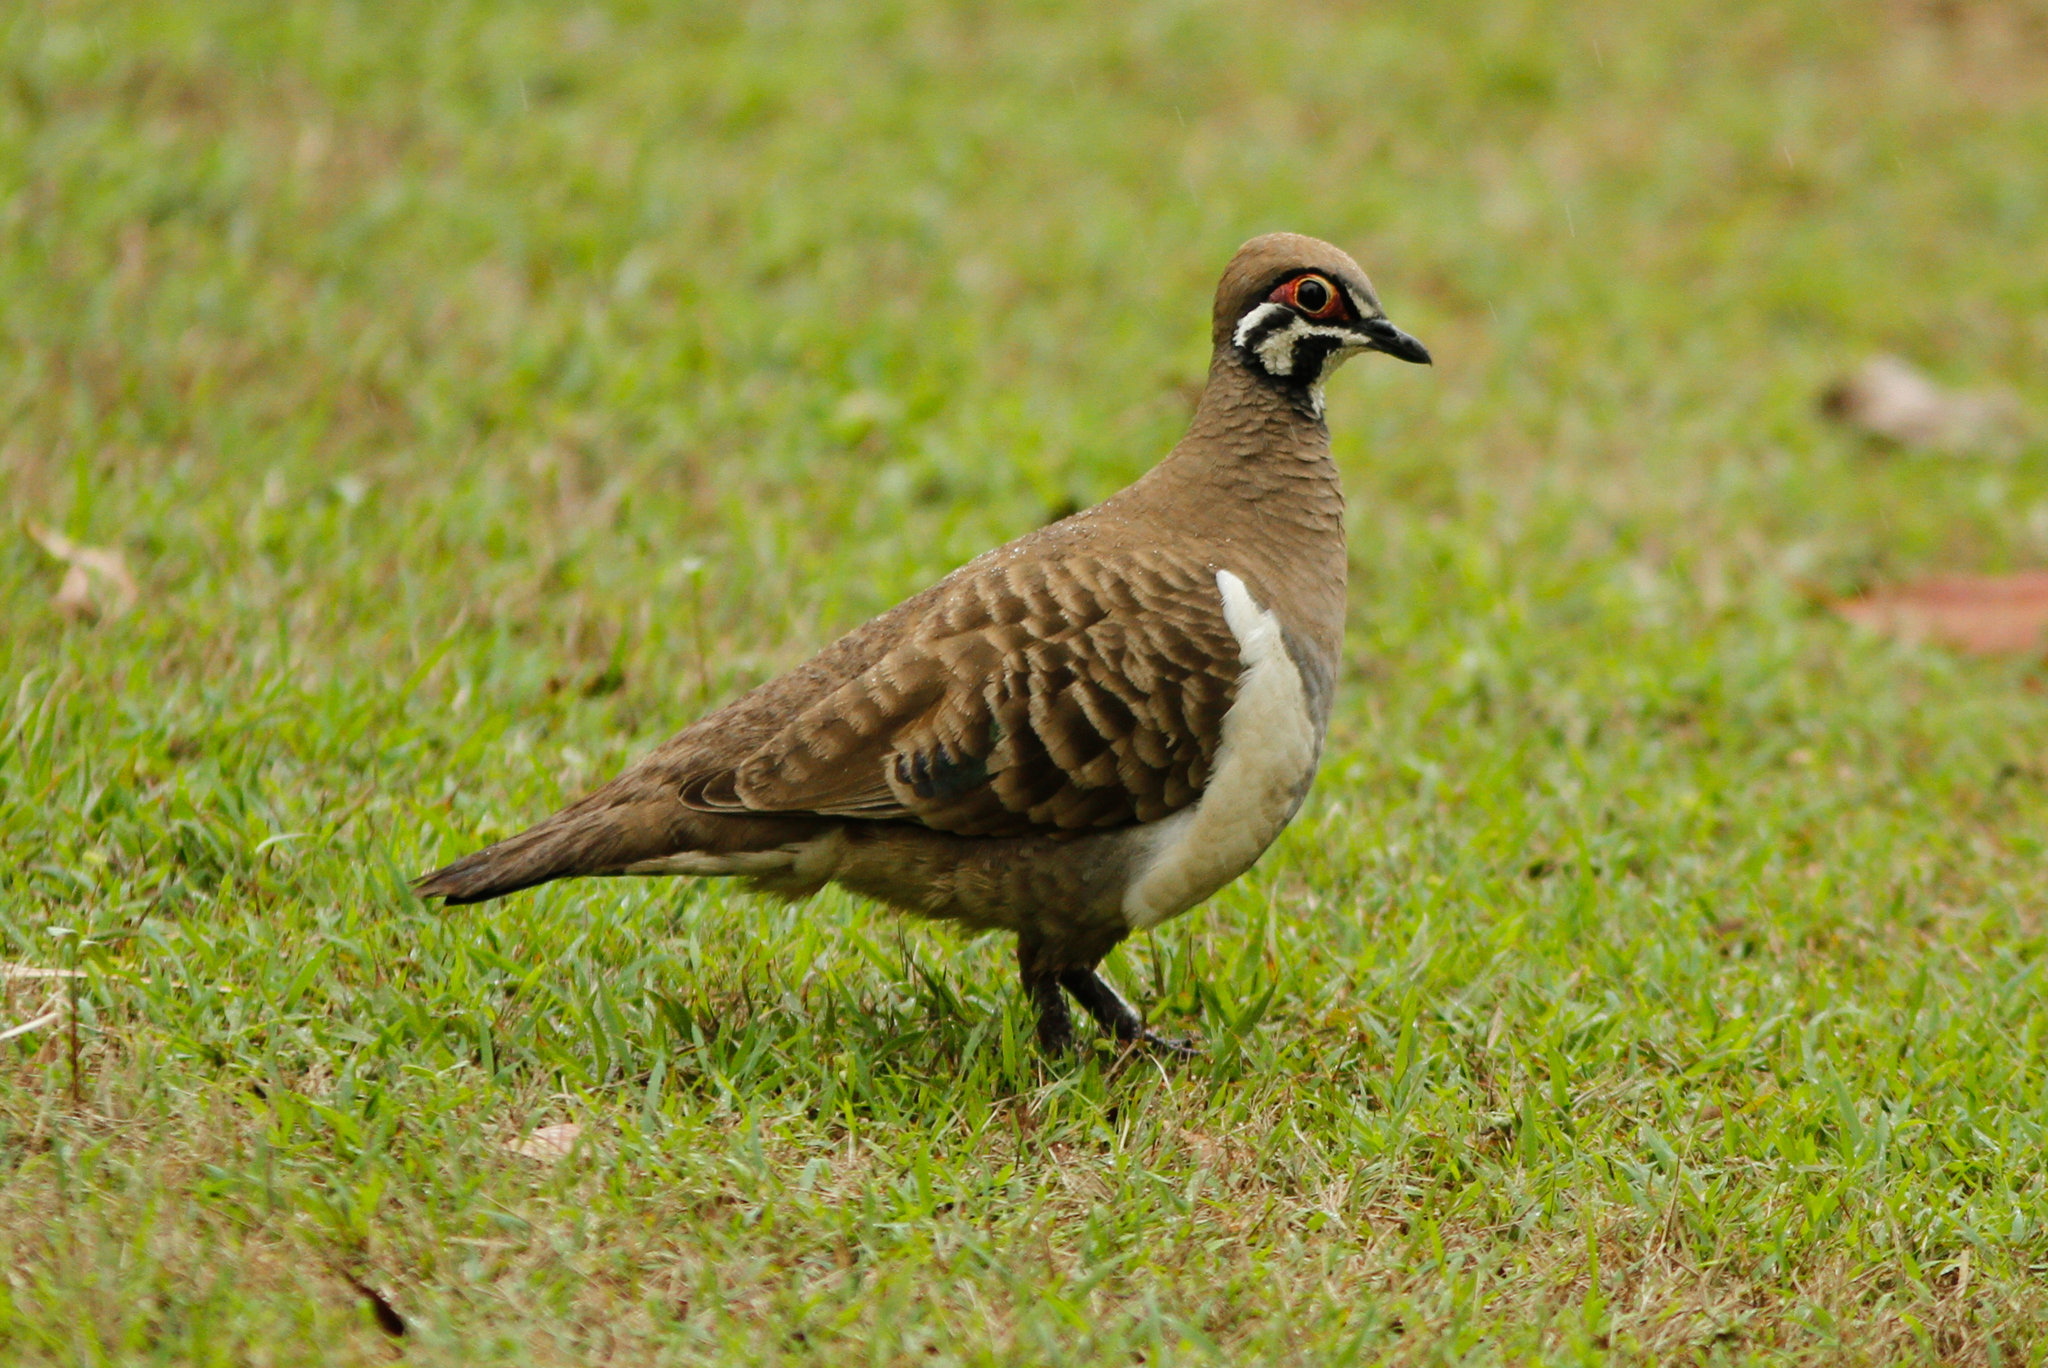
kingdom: Animalia
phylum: Chordata
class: Aves
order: Columbiformes
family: Columbidae
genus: Geophaps
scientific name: Geophaps scripta
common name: Squatter pigeon
